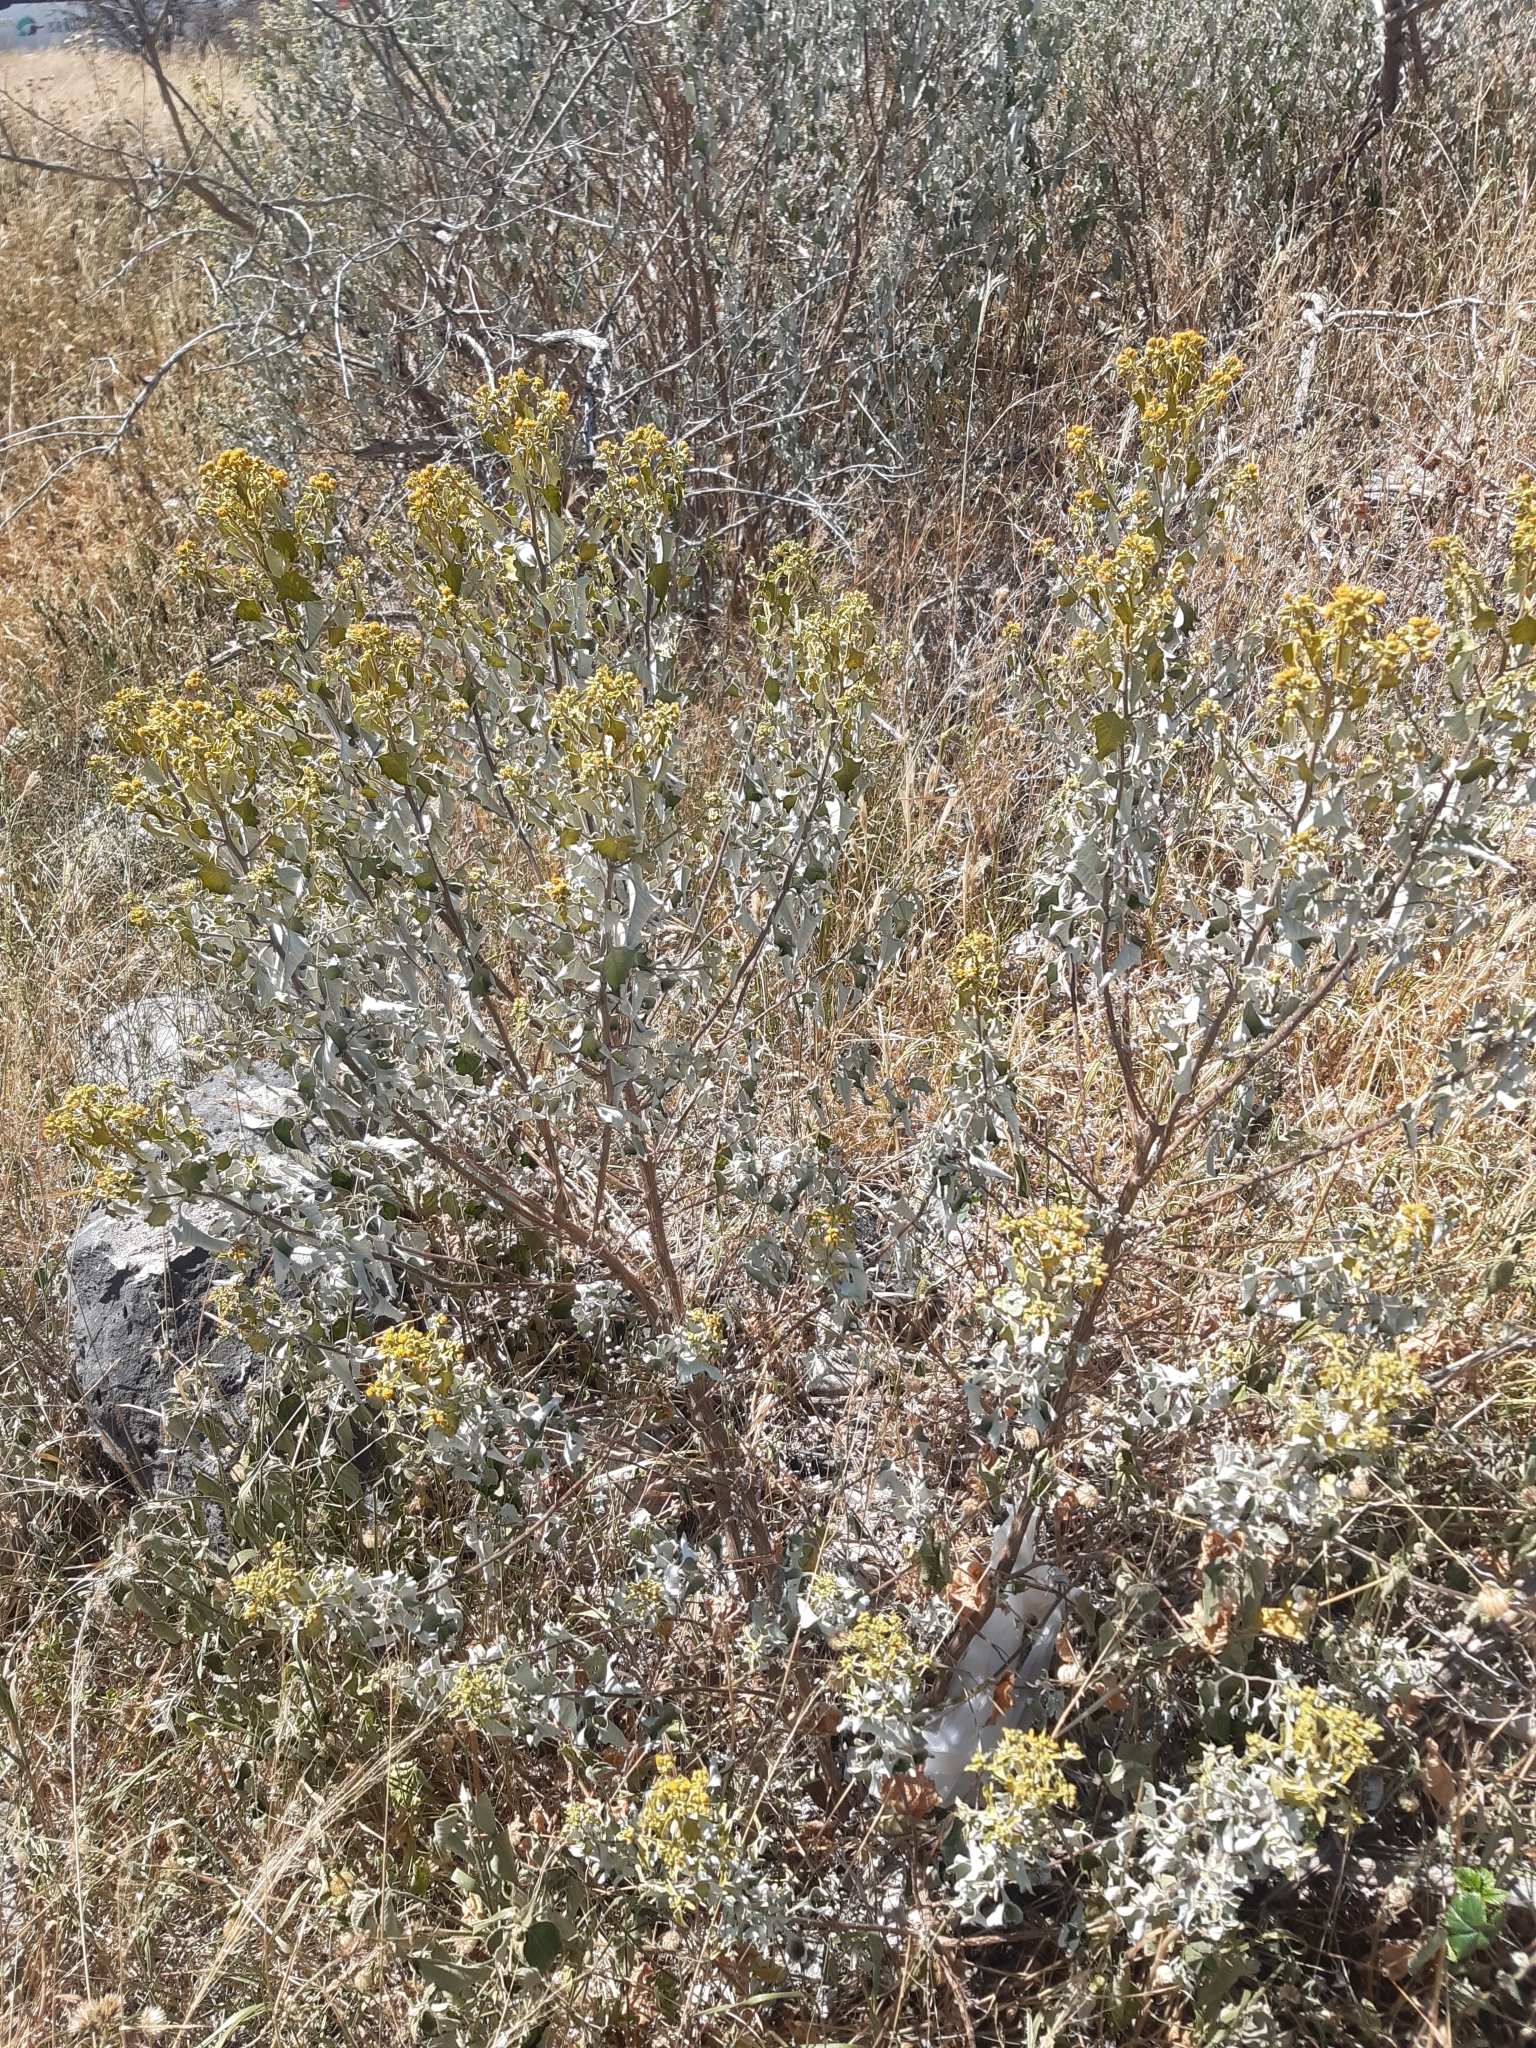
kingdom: Plantae
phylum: Tracheophyta
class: Magnoliopsida
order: Asterales
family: Asteraceae
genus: Zaluzania
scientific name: Zaluzania augusta
